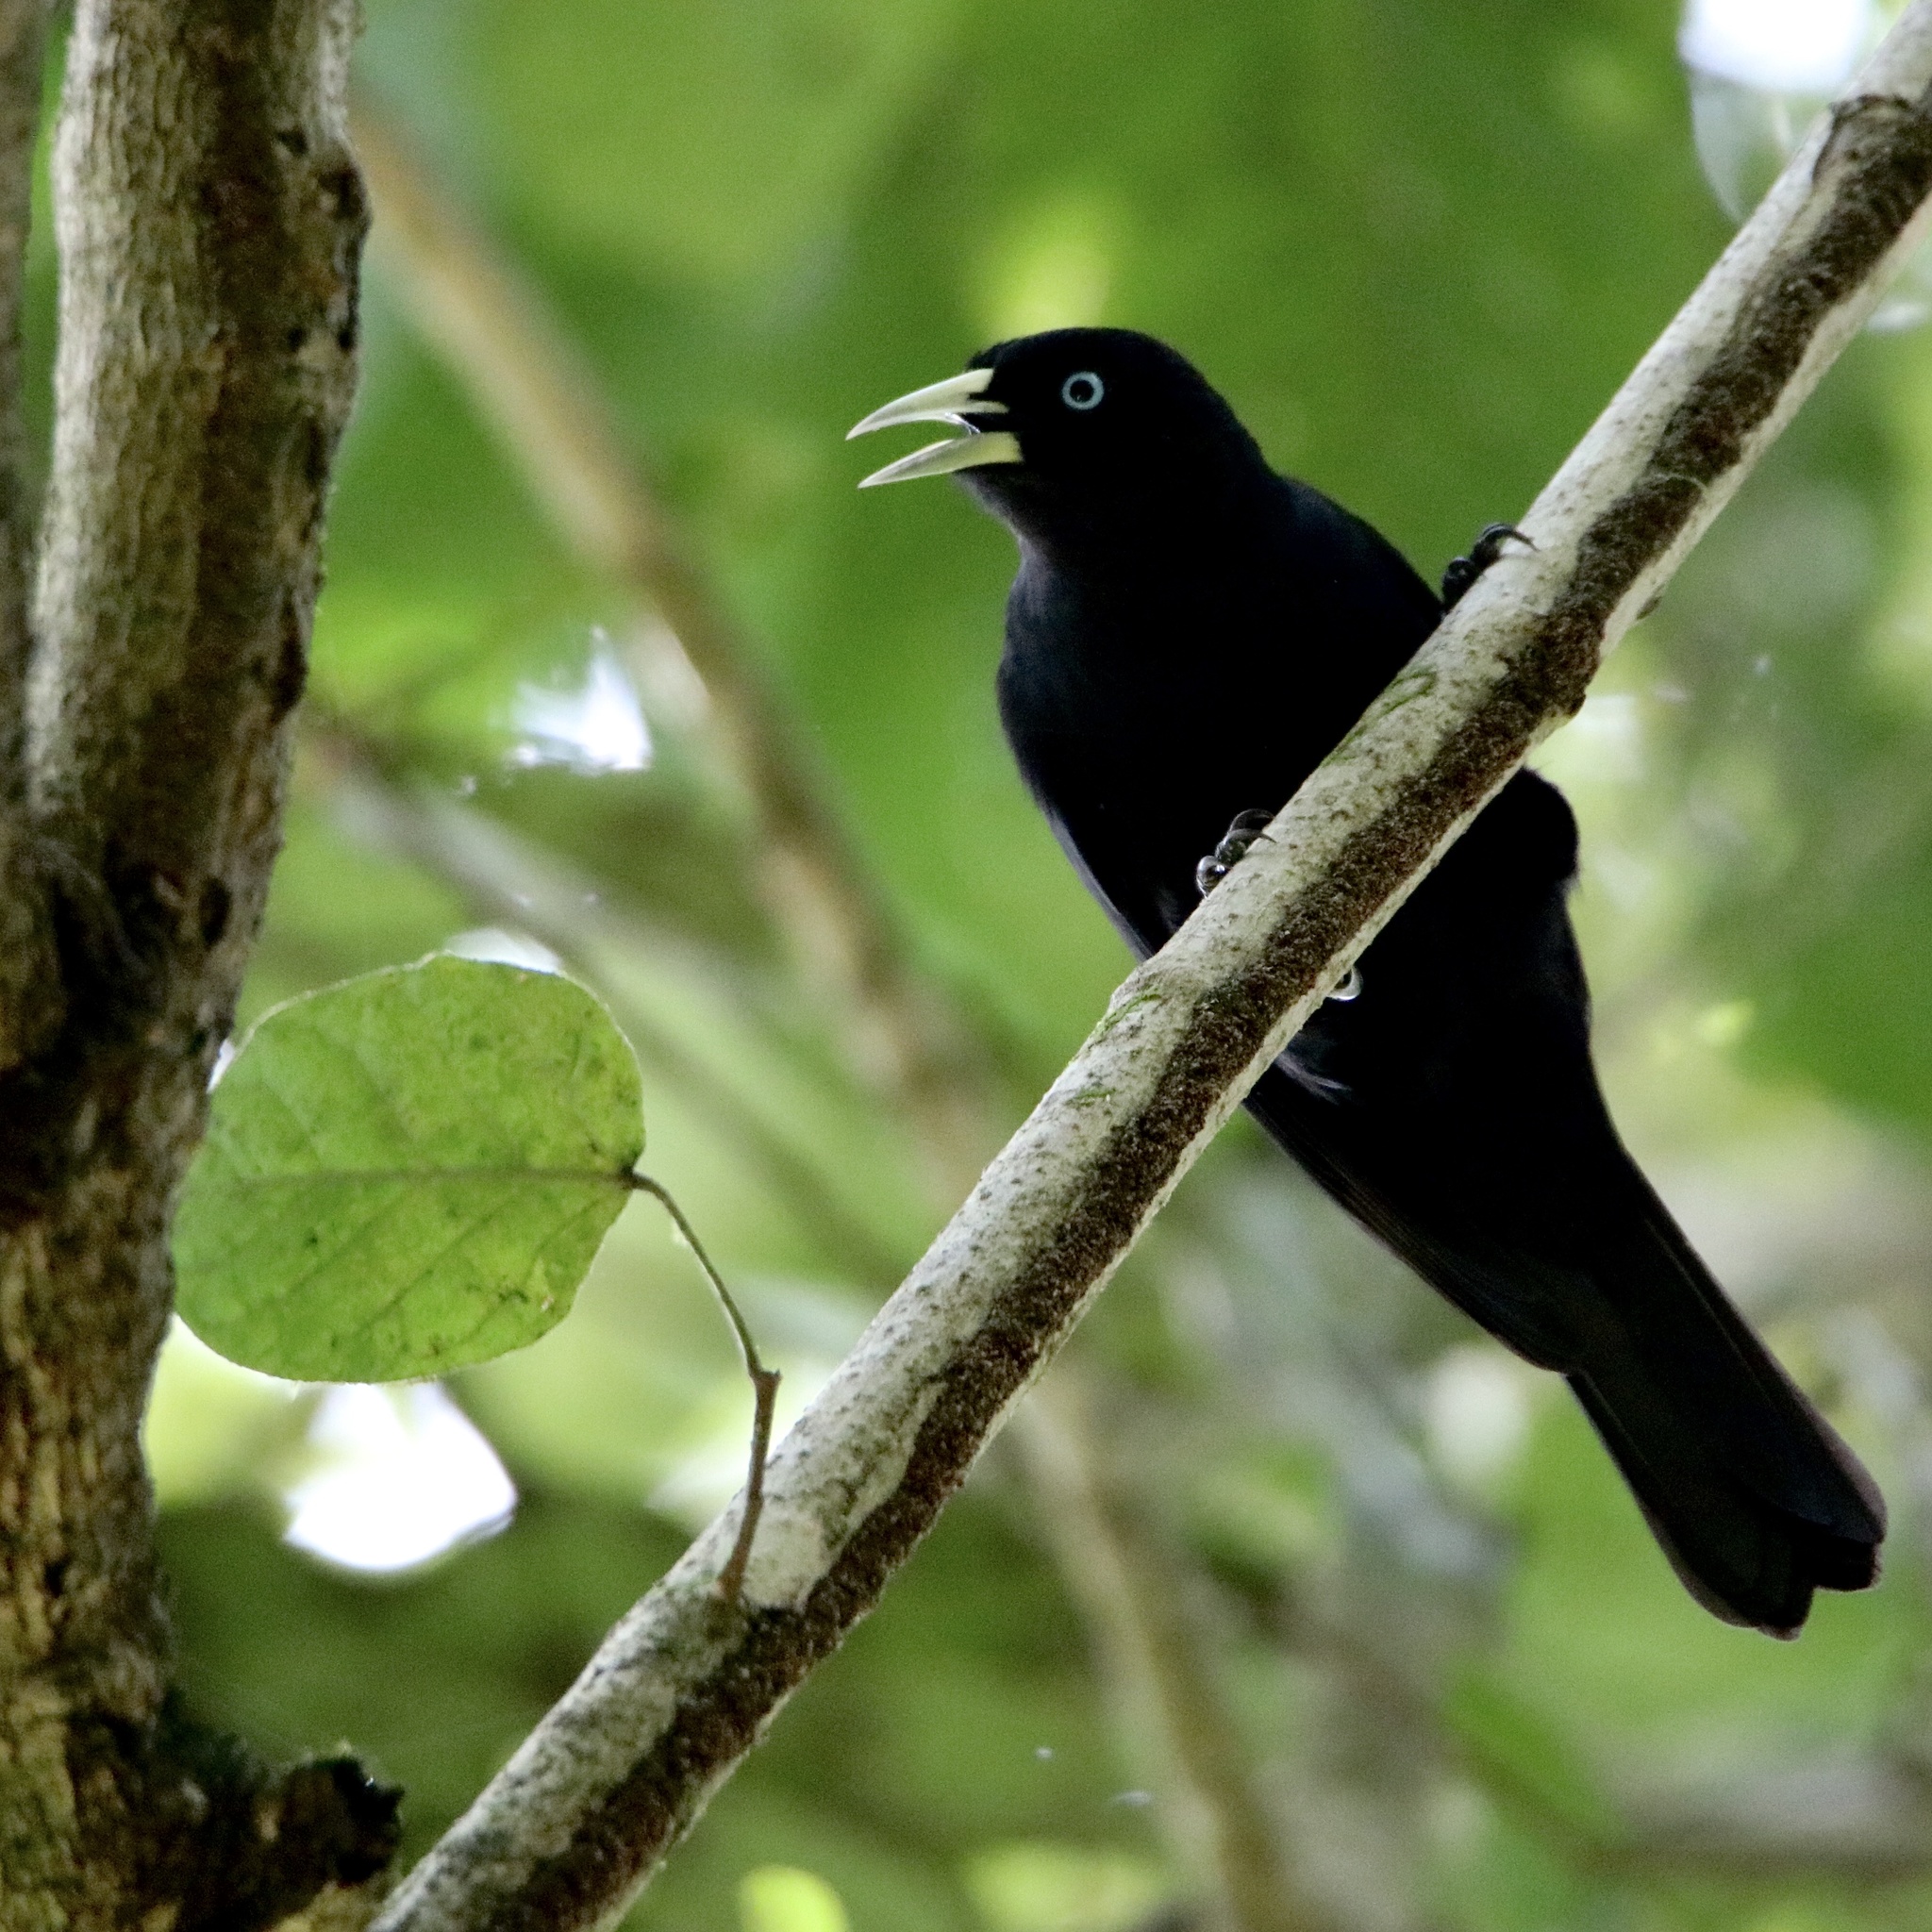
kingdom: Animalia
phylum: Chordata
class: Aves
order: Passeriformes
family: Icteridae
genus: Cacicus
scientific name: Cacicus uropygialis
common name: Scarlet-rumped cacique
